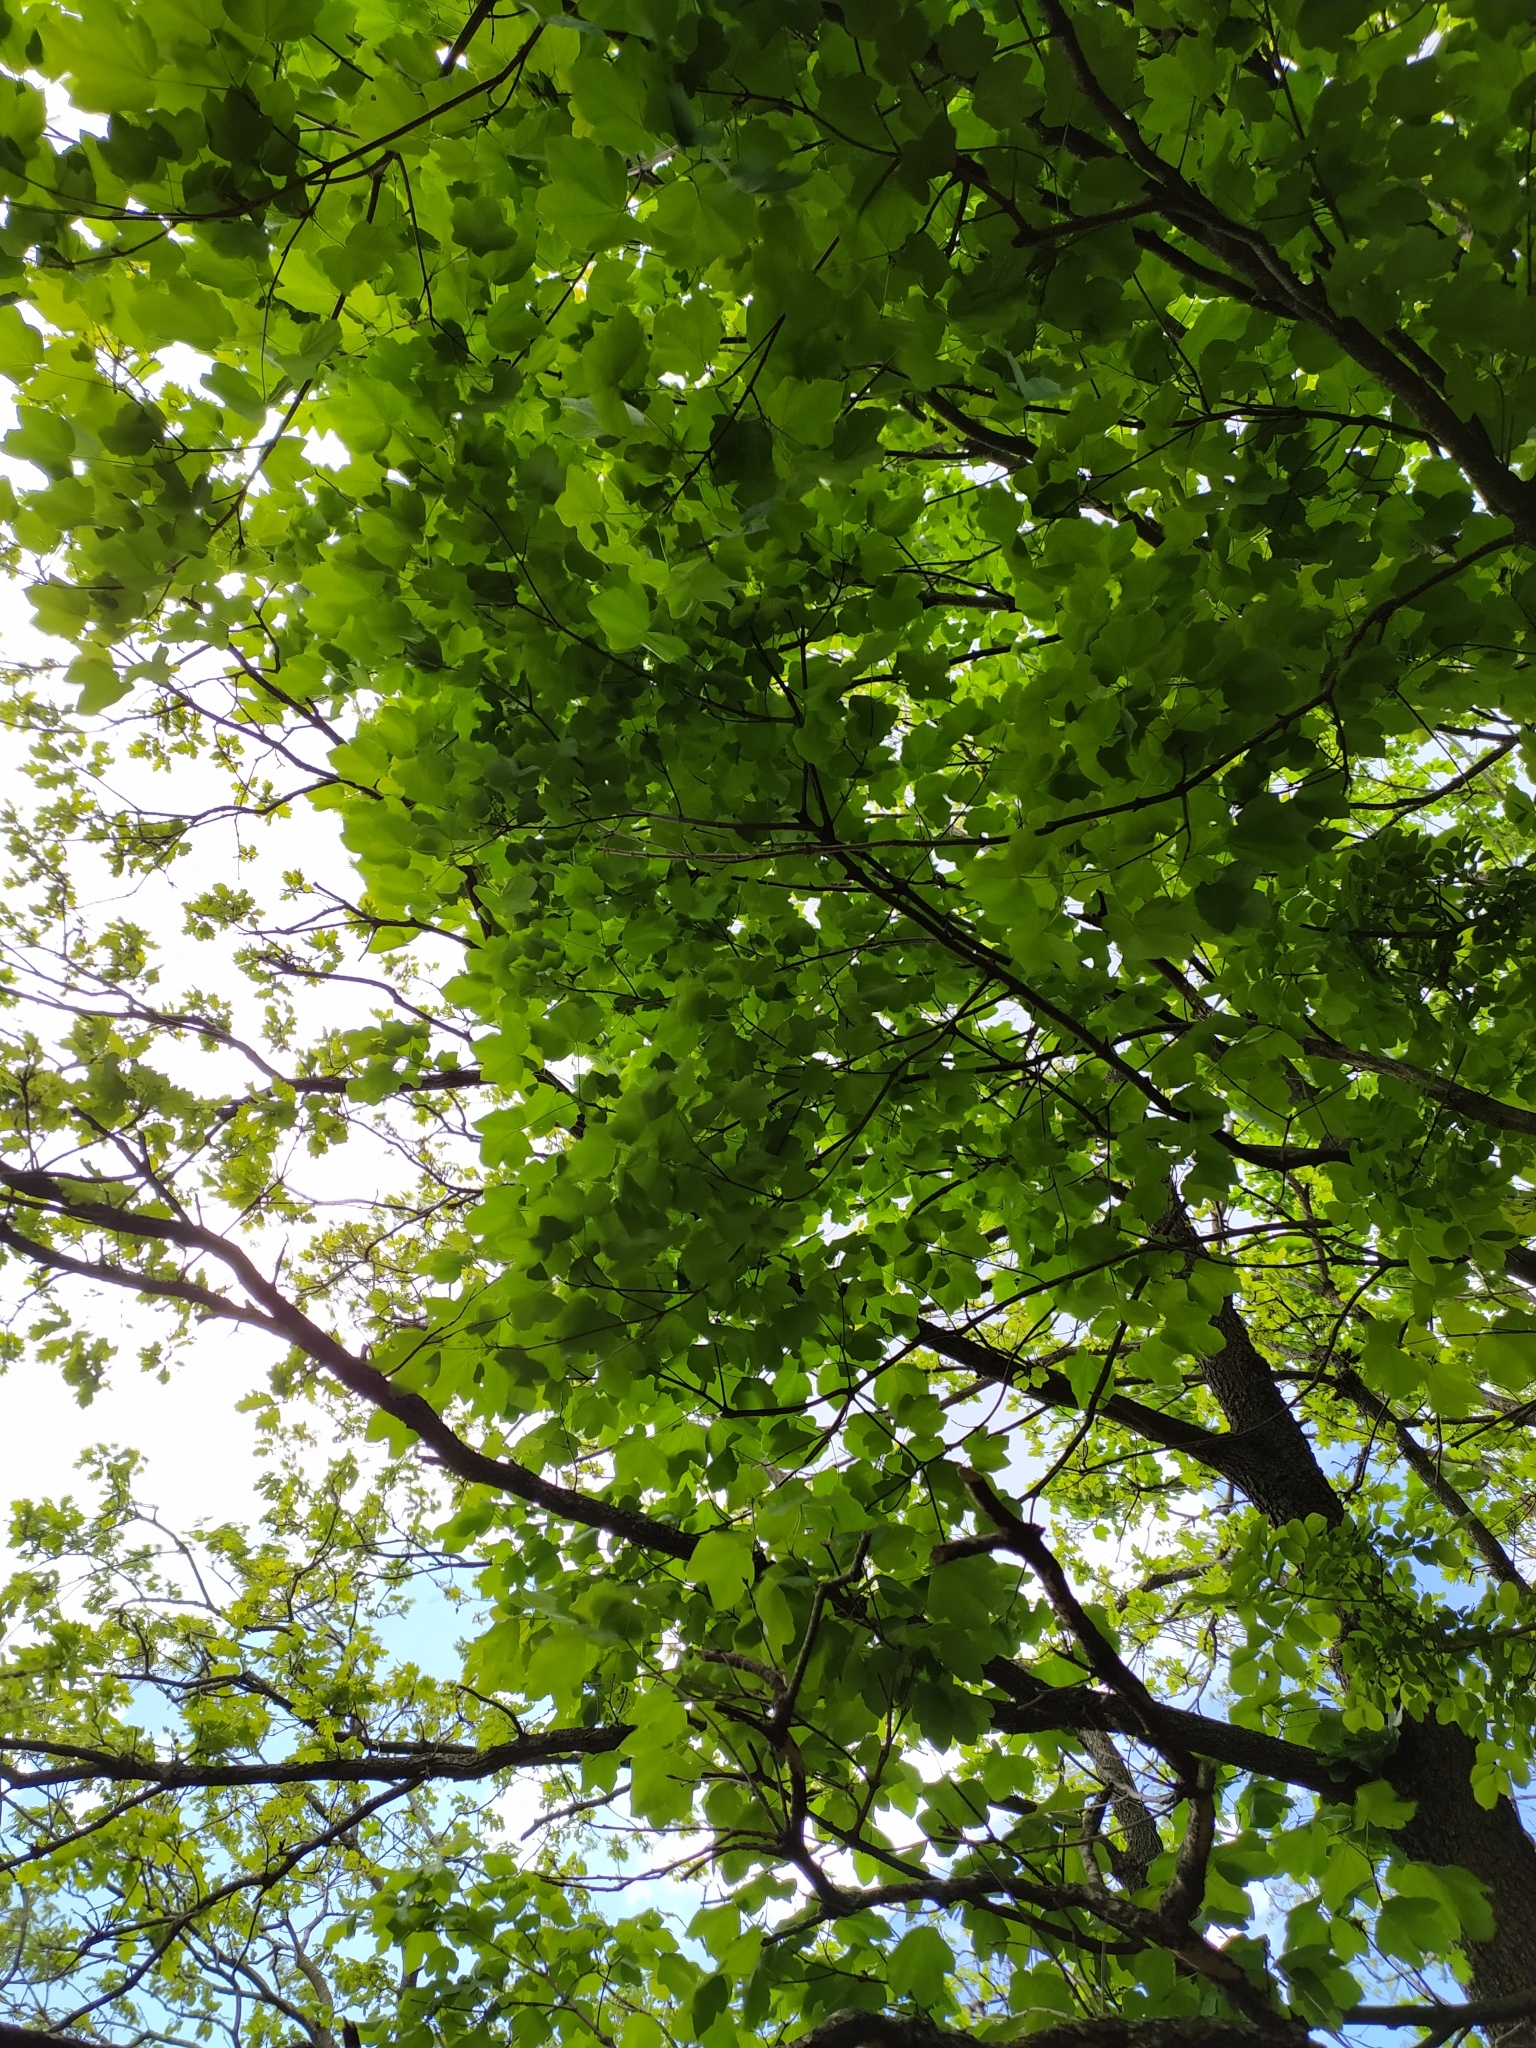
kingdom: Plantae
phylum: Tracheophyta
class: Magnoliopsida
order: Sapindales
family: Sapindaceae
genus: Acer
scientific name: Acer opalus
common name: Italian maple
